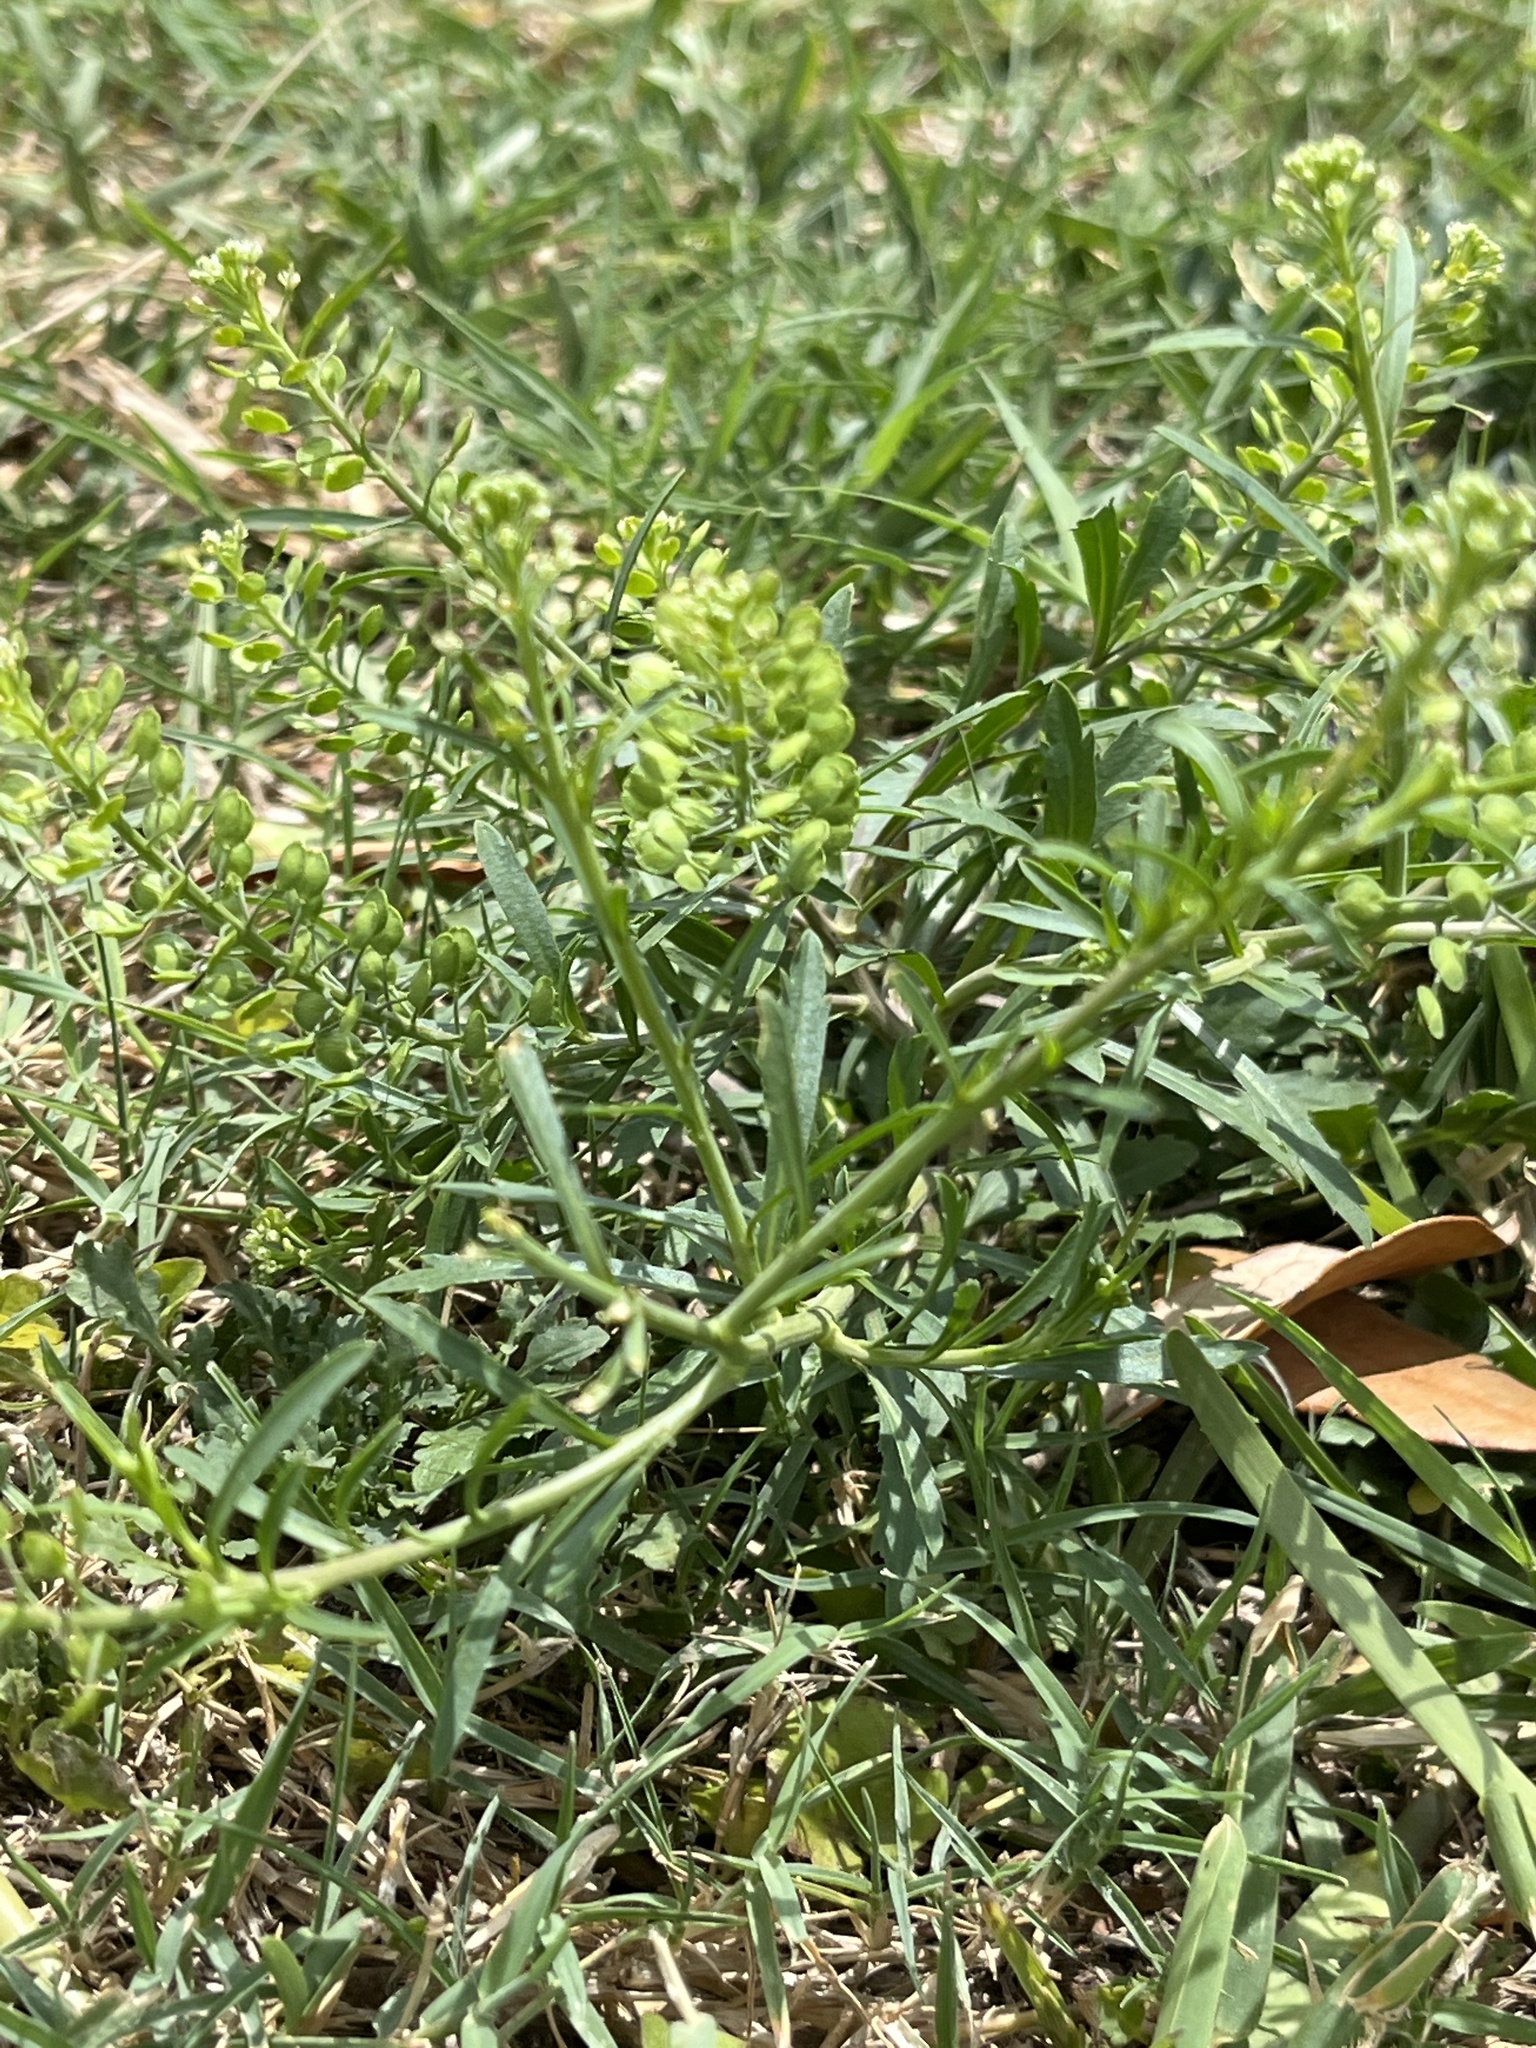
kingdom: Plantae
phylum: Tracheophyta
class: Magnoliopsida
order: Brassicales
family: Brassicaceae
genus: Lepidium
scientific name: Lepidium virginicum
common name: Least pepperwort
